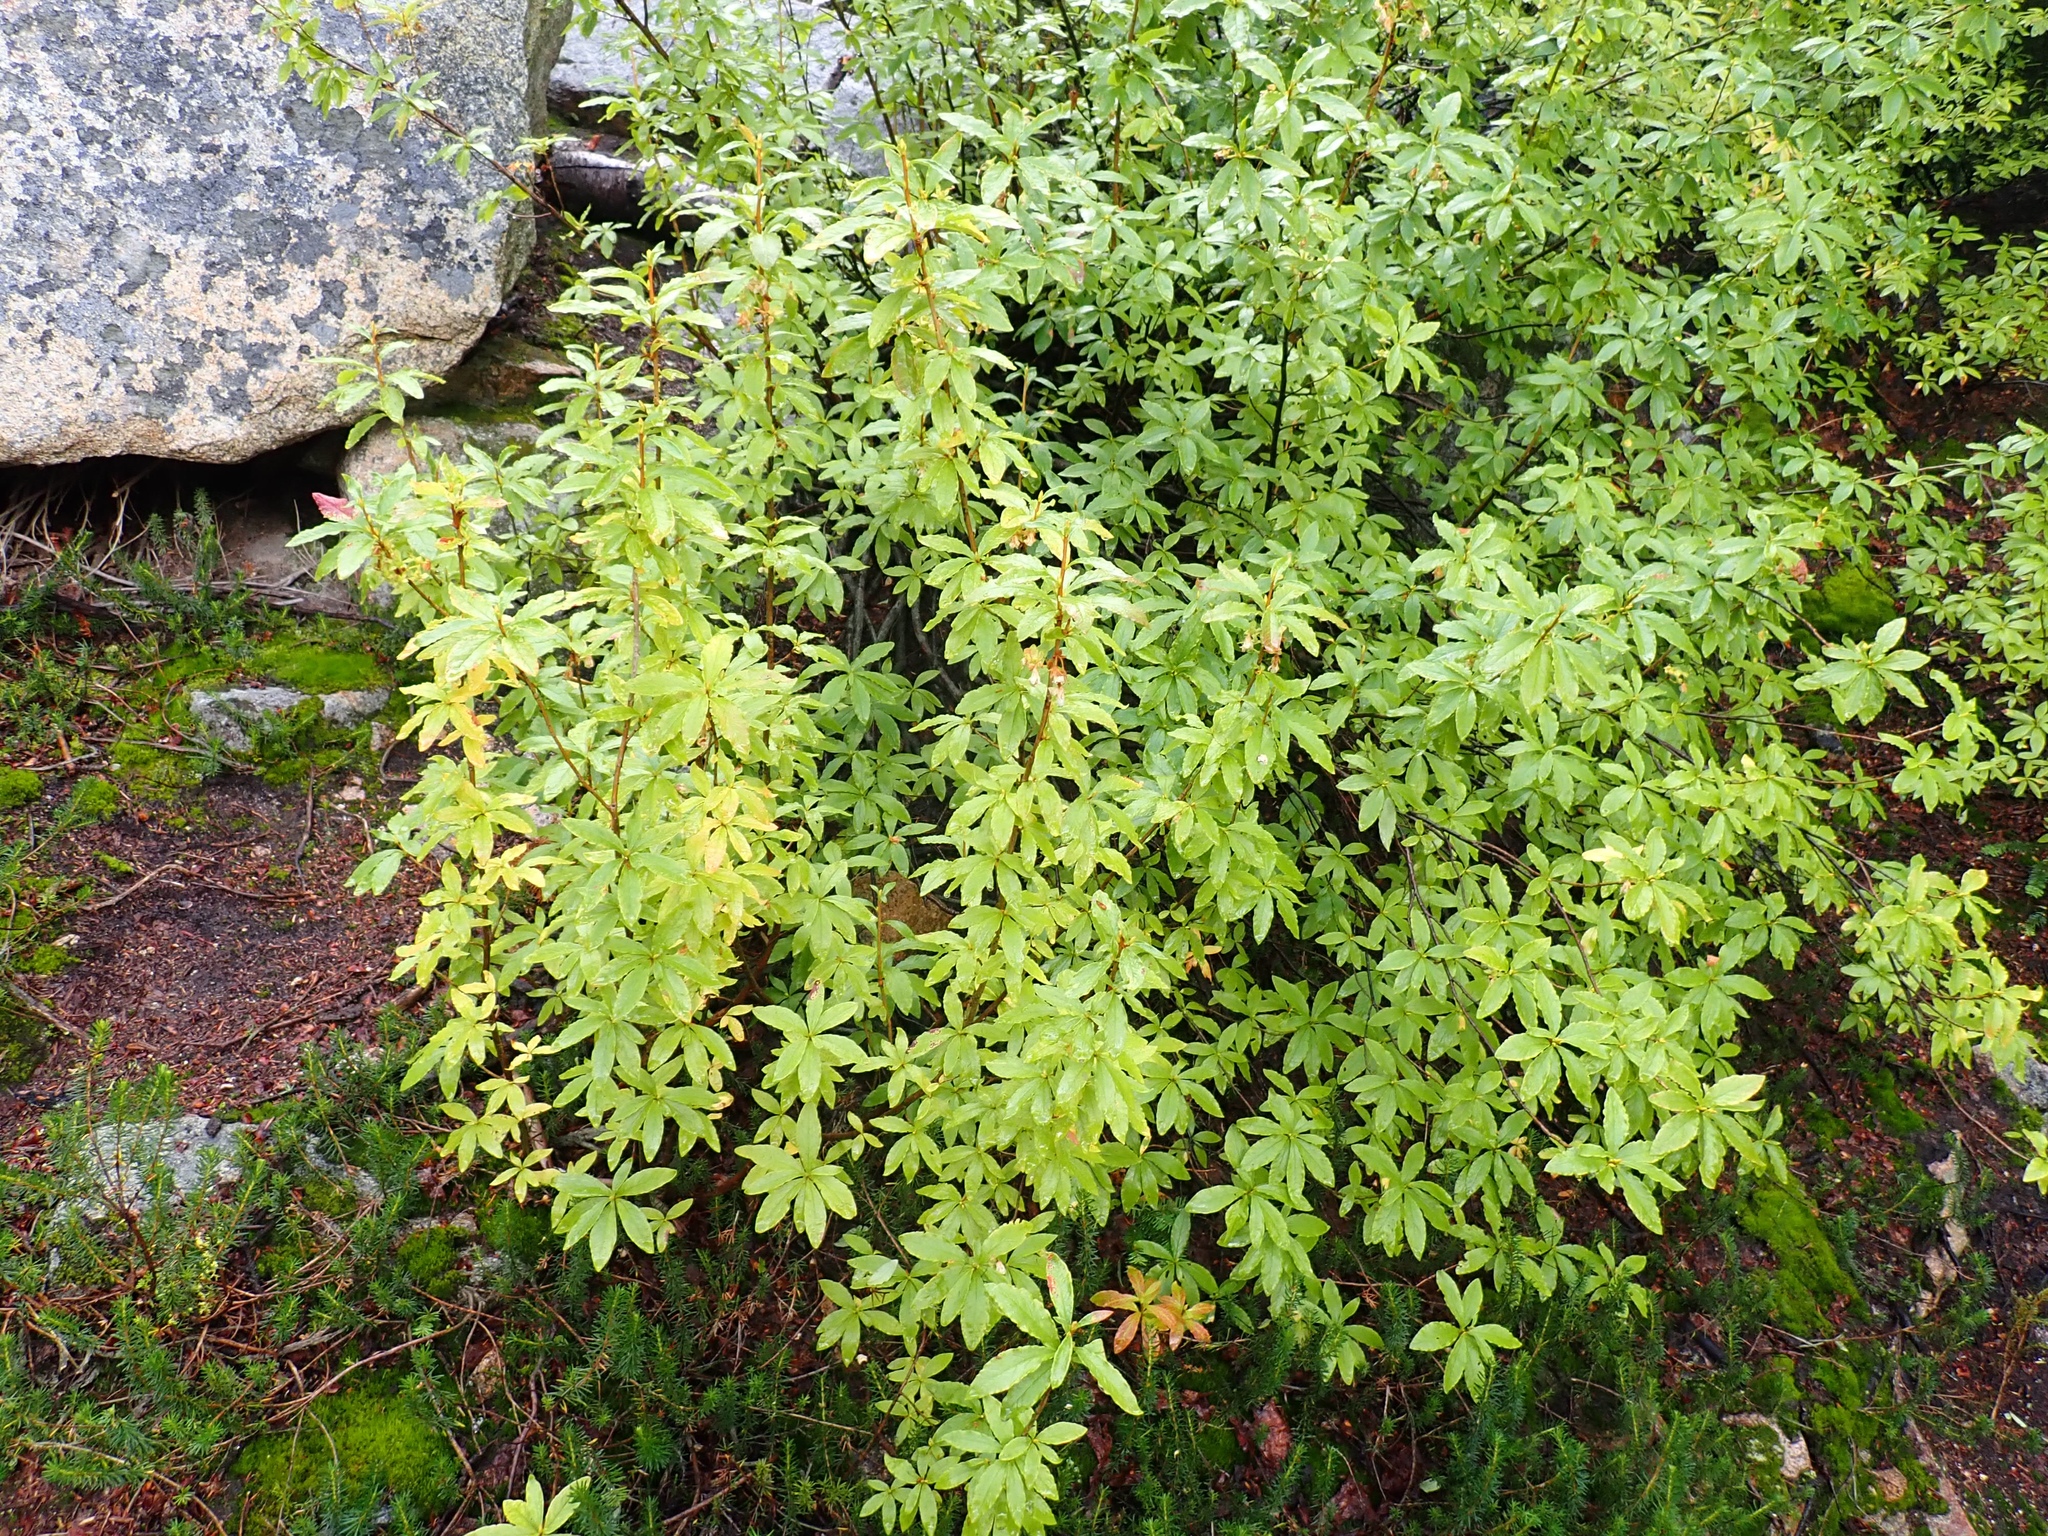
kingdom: Plantae
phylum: Tracheophyta
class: Magnoliopsida
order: Ericales
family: Ericaceae
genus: Rhododendron
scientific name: Rhododendron albiflorum
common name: White rhododendron
